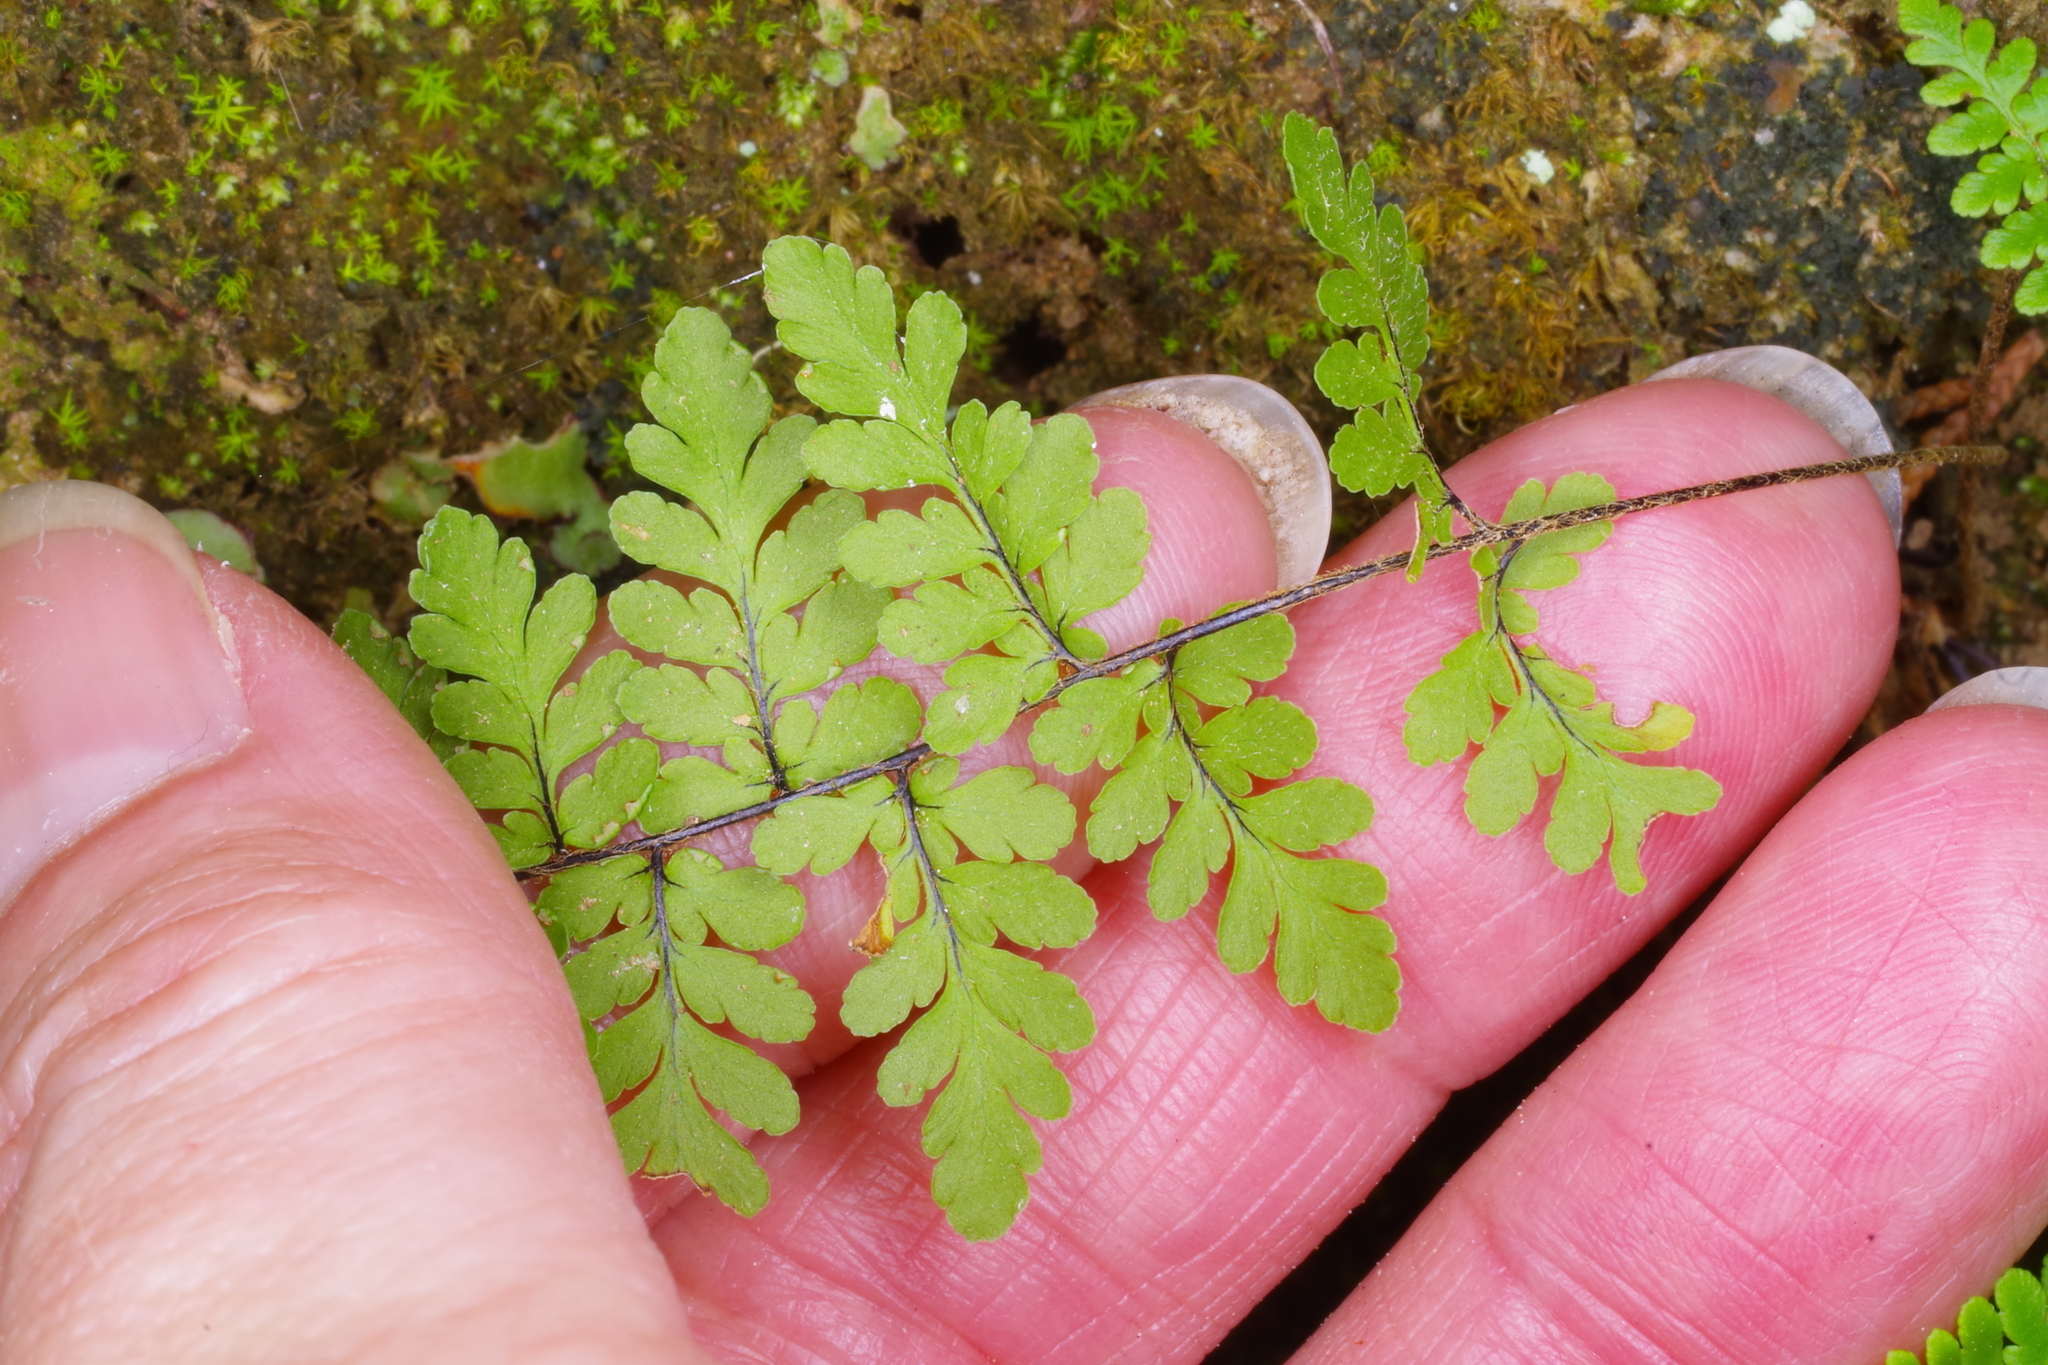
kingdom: Plantae
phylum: Tracheophyta
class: Polypodiopsida
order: Polypodiales
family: Pteridaceae
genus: Myriopteris
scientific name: Myriopteris alabamensis
